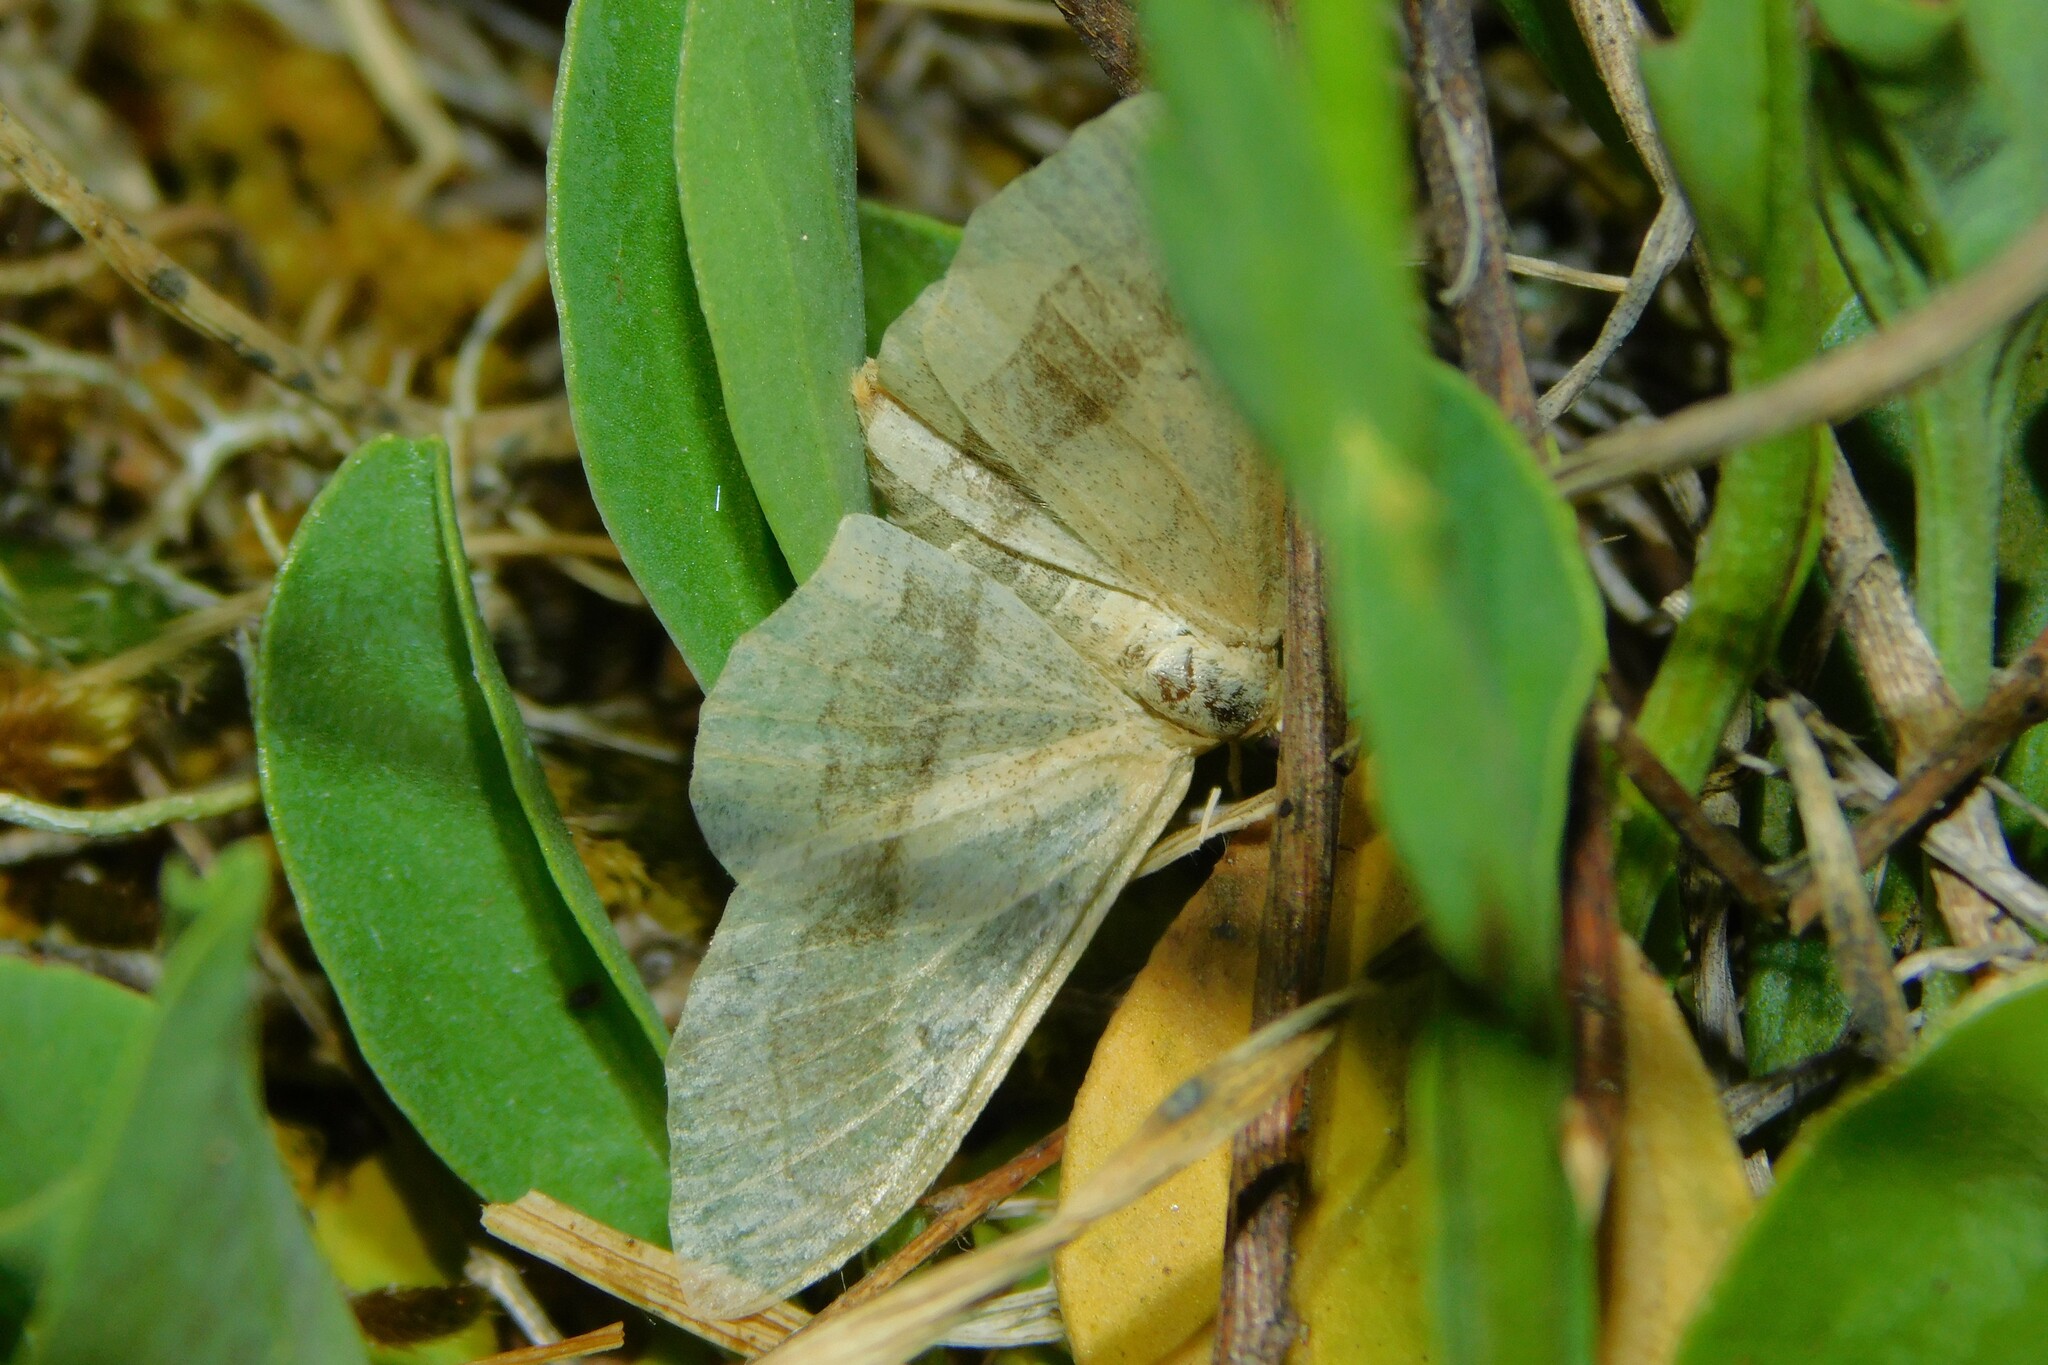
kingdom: Animalia
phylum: Arthropoda
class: Insecta
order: Lepidoptera
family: Geometridae
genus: Idaea
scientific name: Idaea aversata
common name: Riband wave
